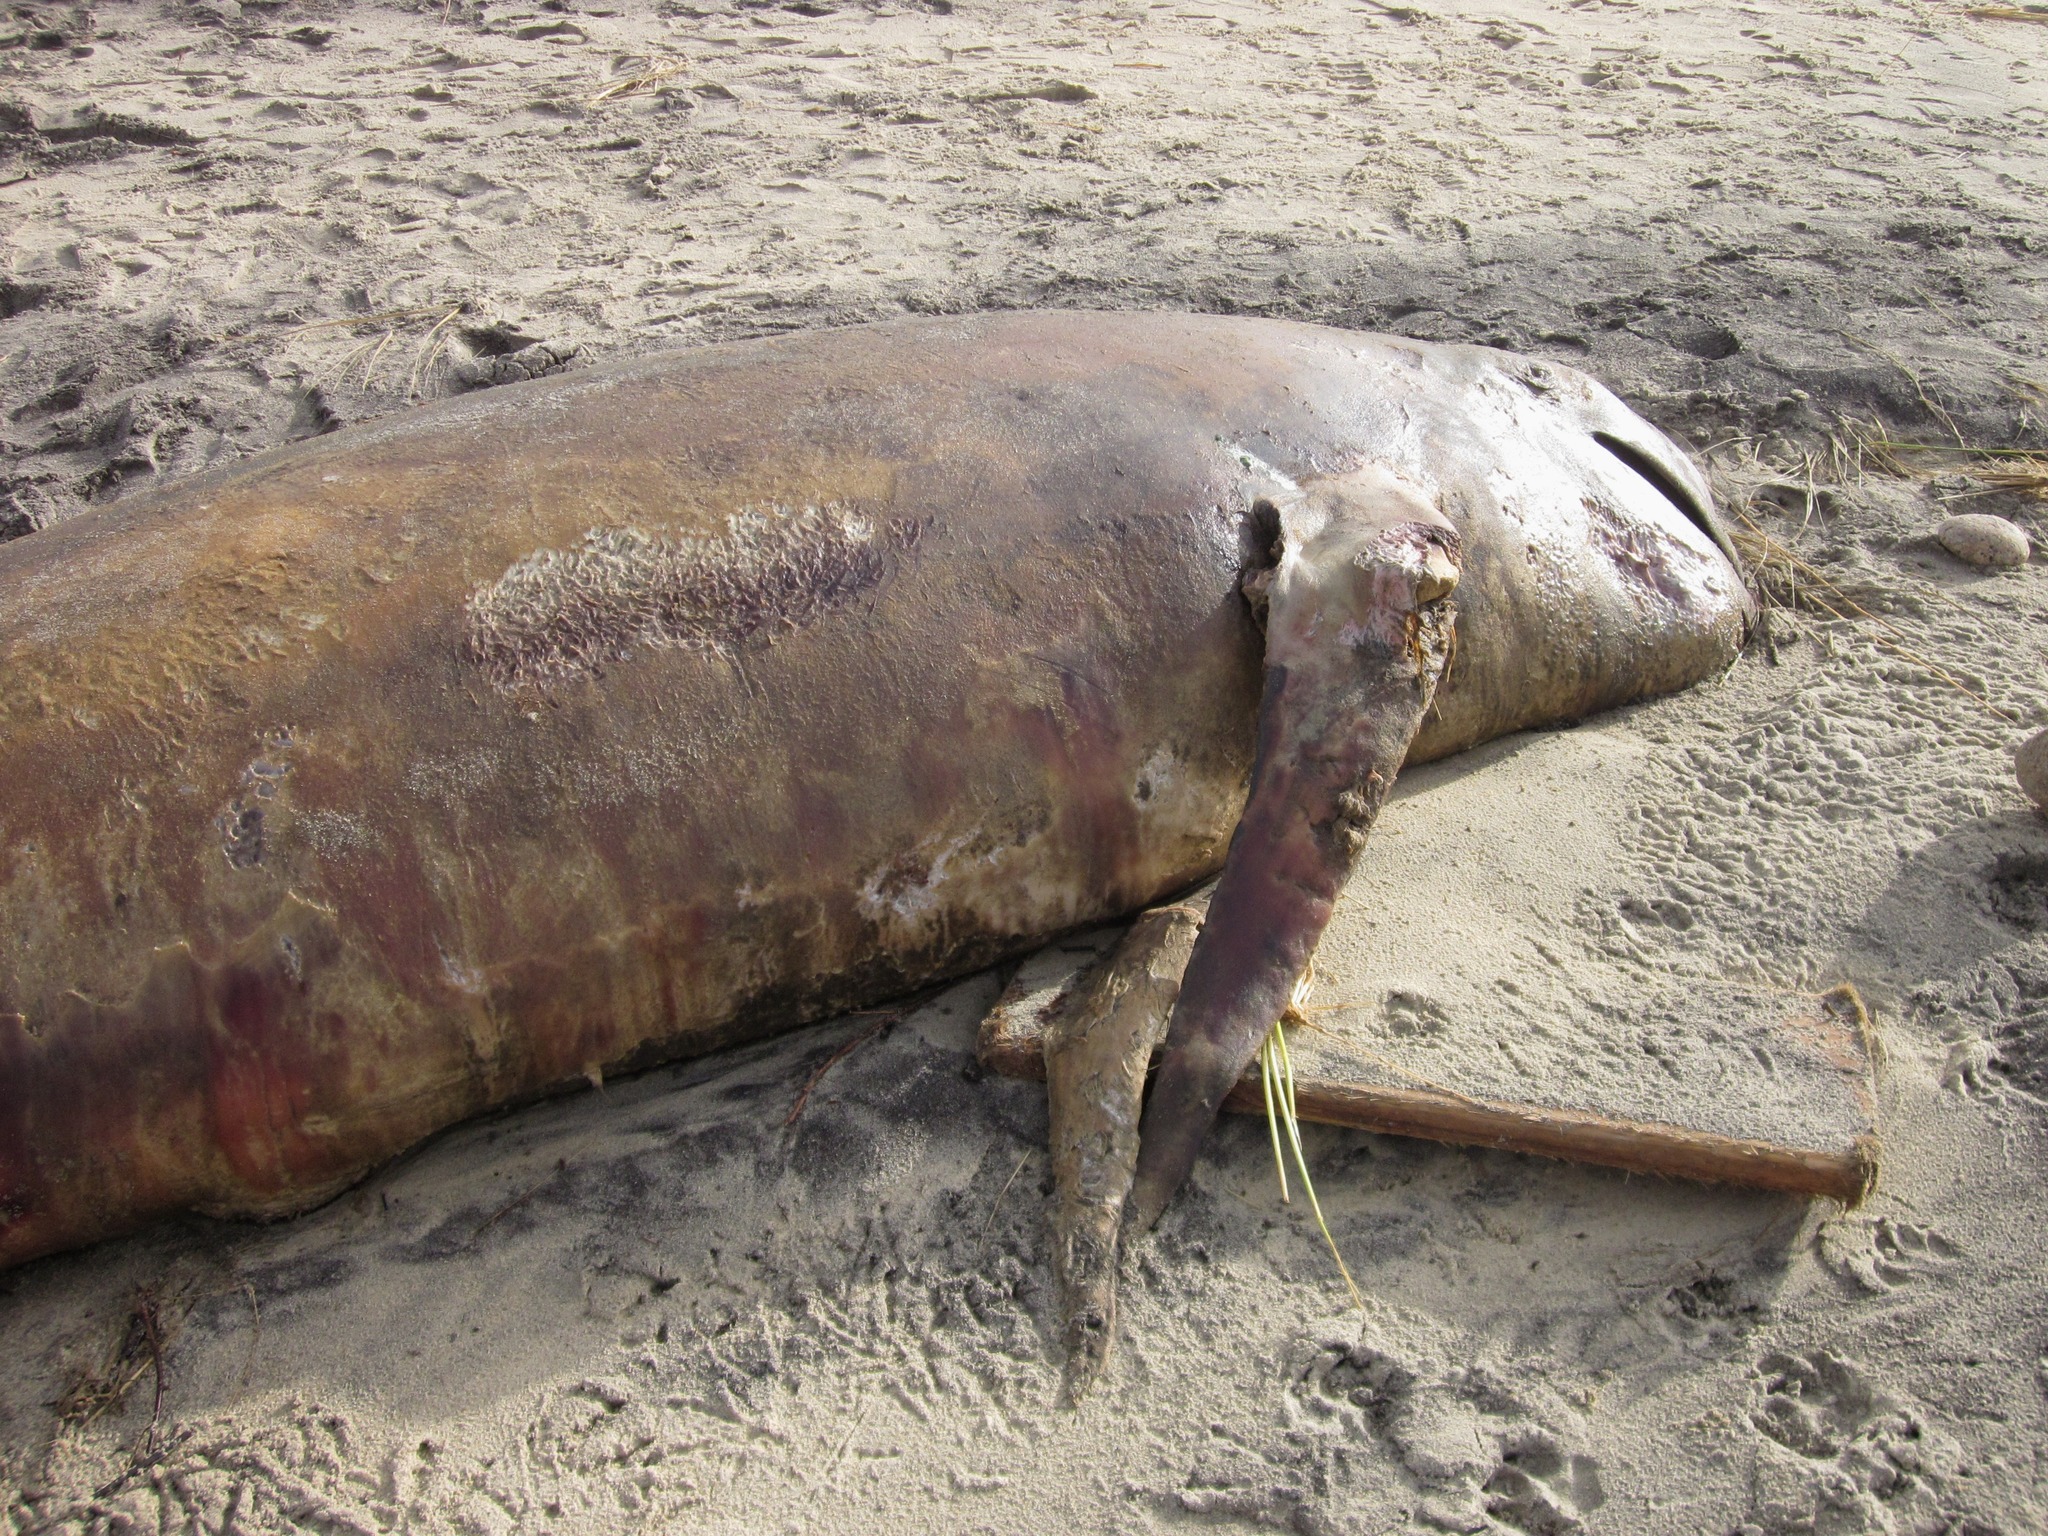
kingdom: Animalia
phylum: Chordata
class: Mammalia
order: Cetacea
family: Delphinidae
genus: Globicephala
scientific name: Globicephala melas
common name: Long-finned pilot whale
